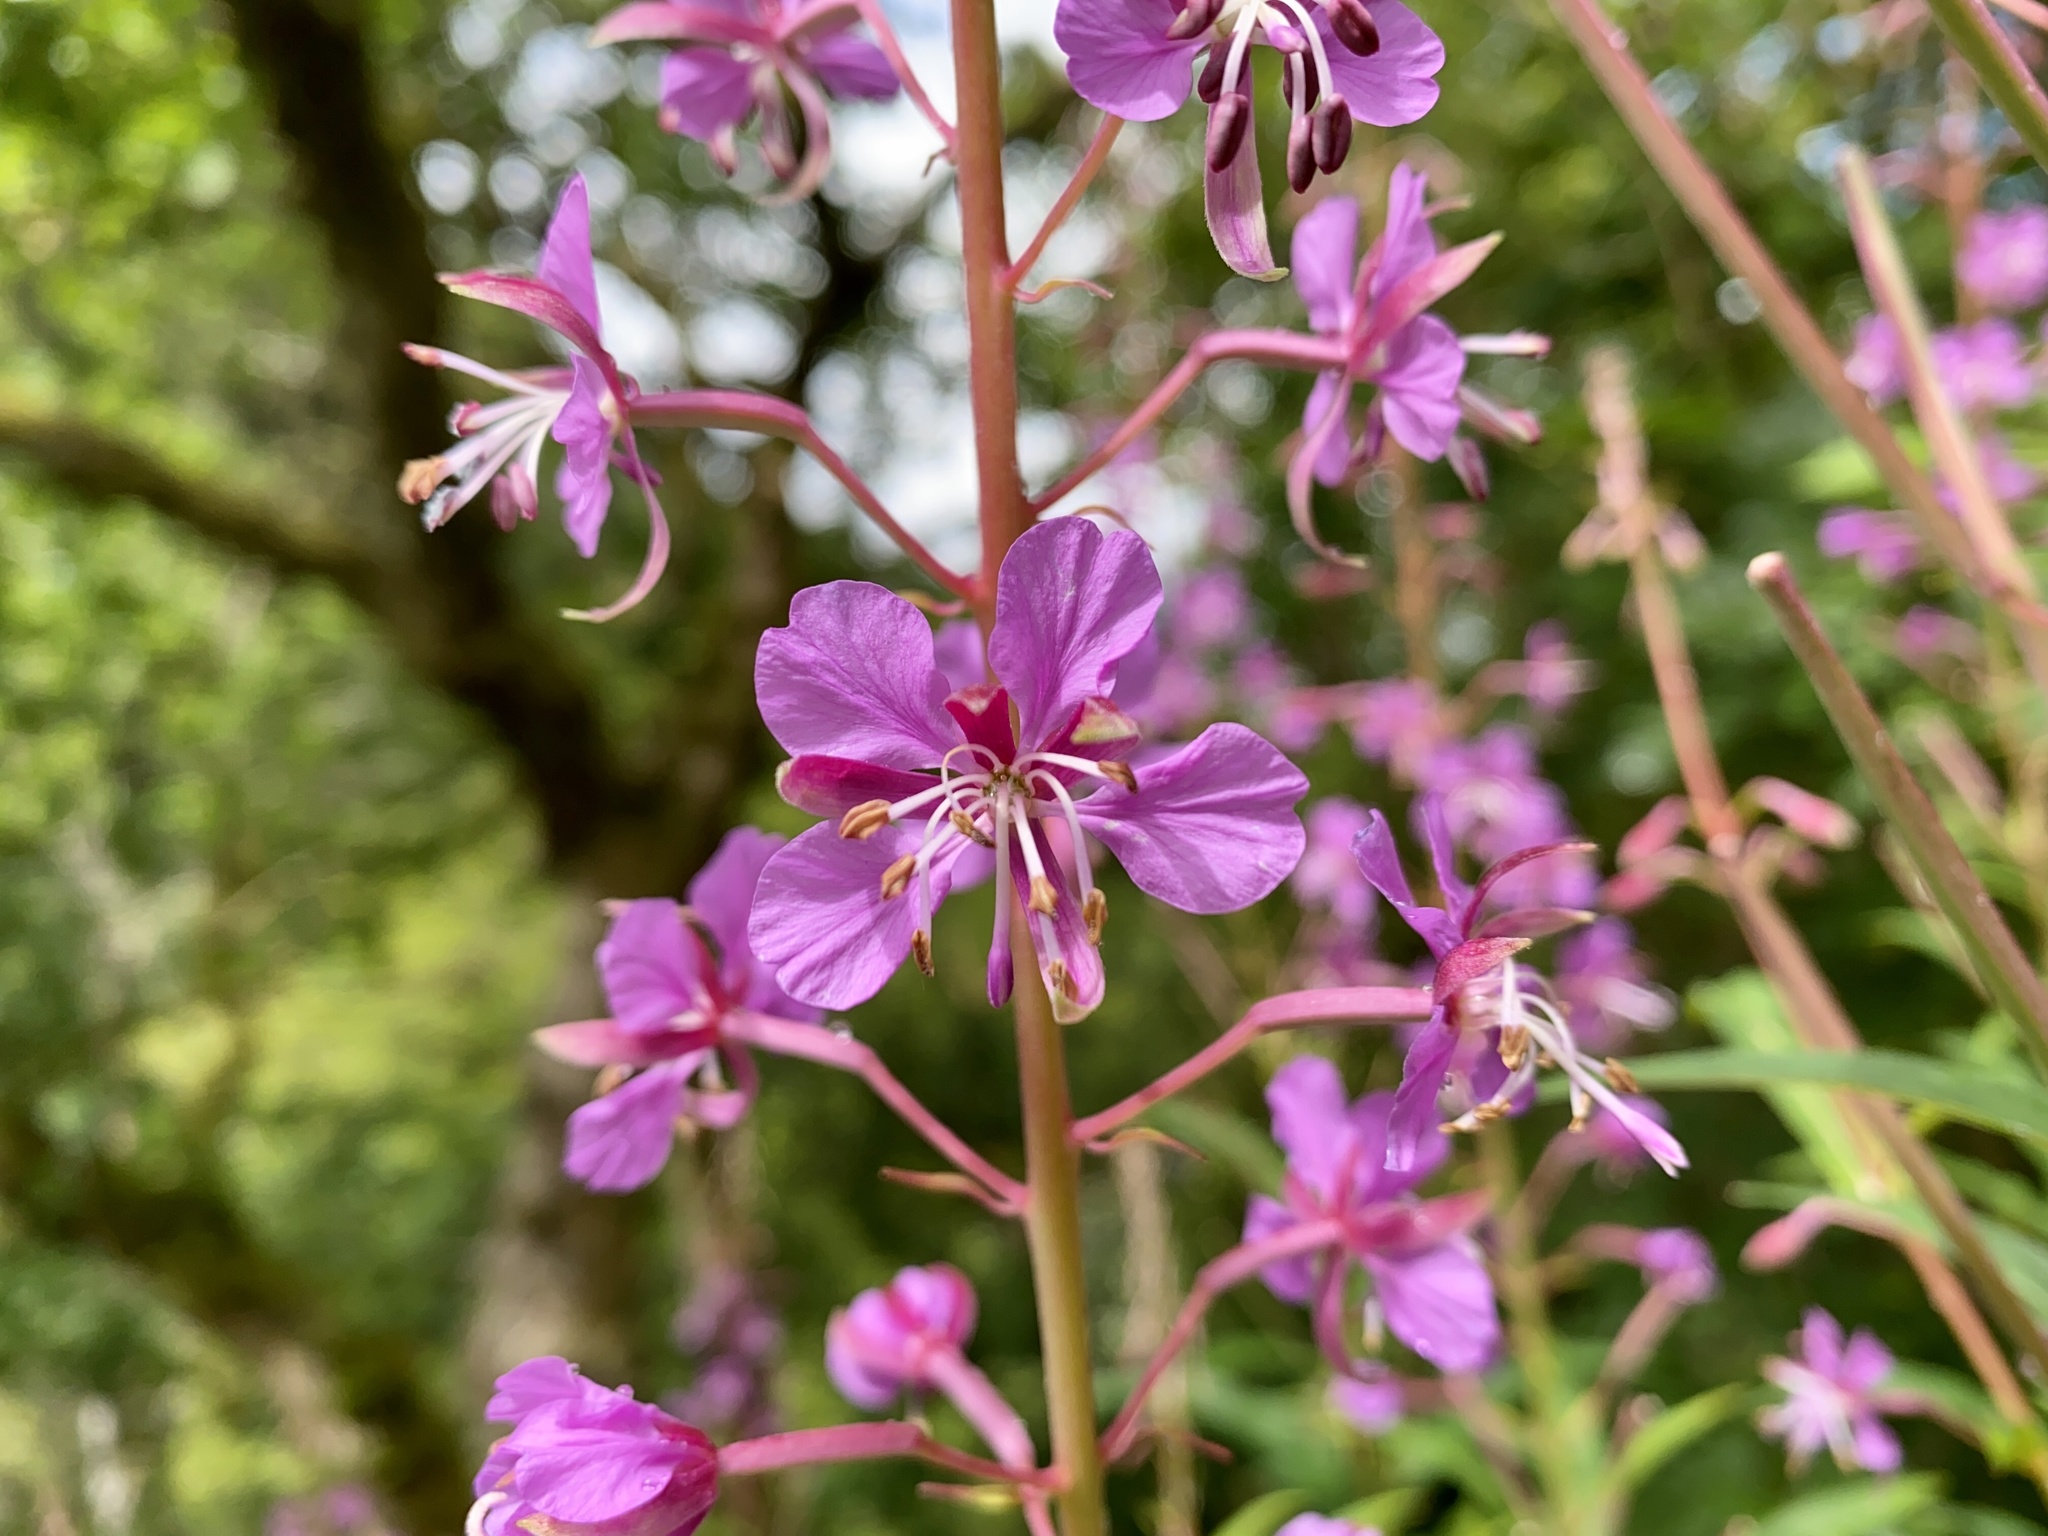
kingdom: Plantae
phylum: Tracheophyta
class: Magnoliopsida
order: Myrtales
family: Onagraceae
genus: Chamaenerion
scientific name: Chamaenerion angustifolium
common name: Fireweed
